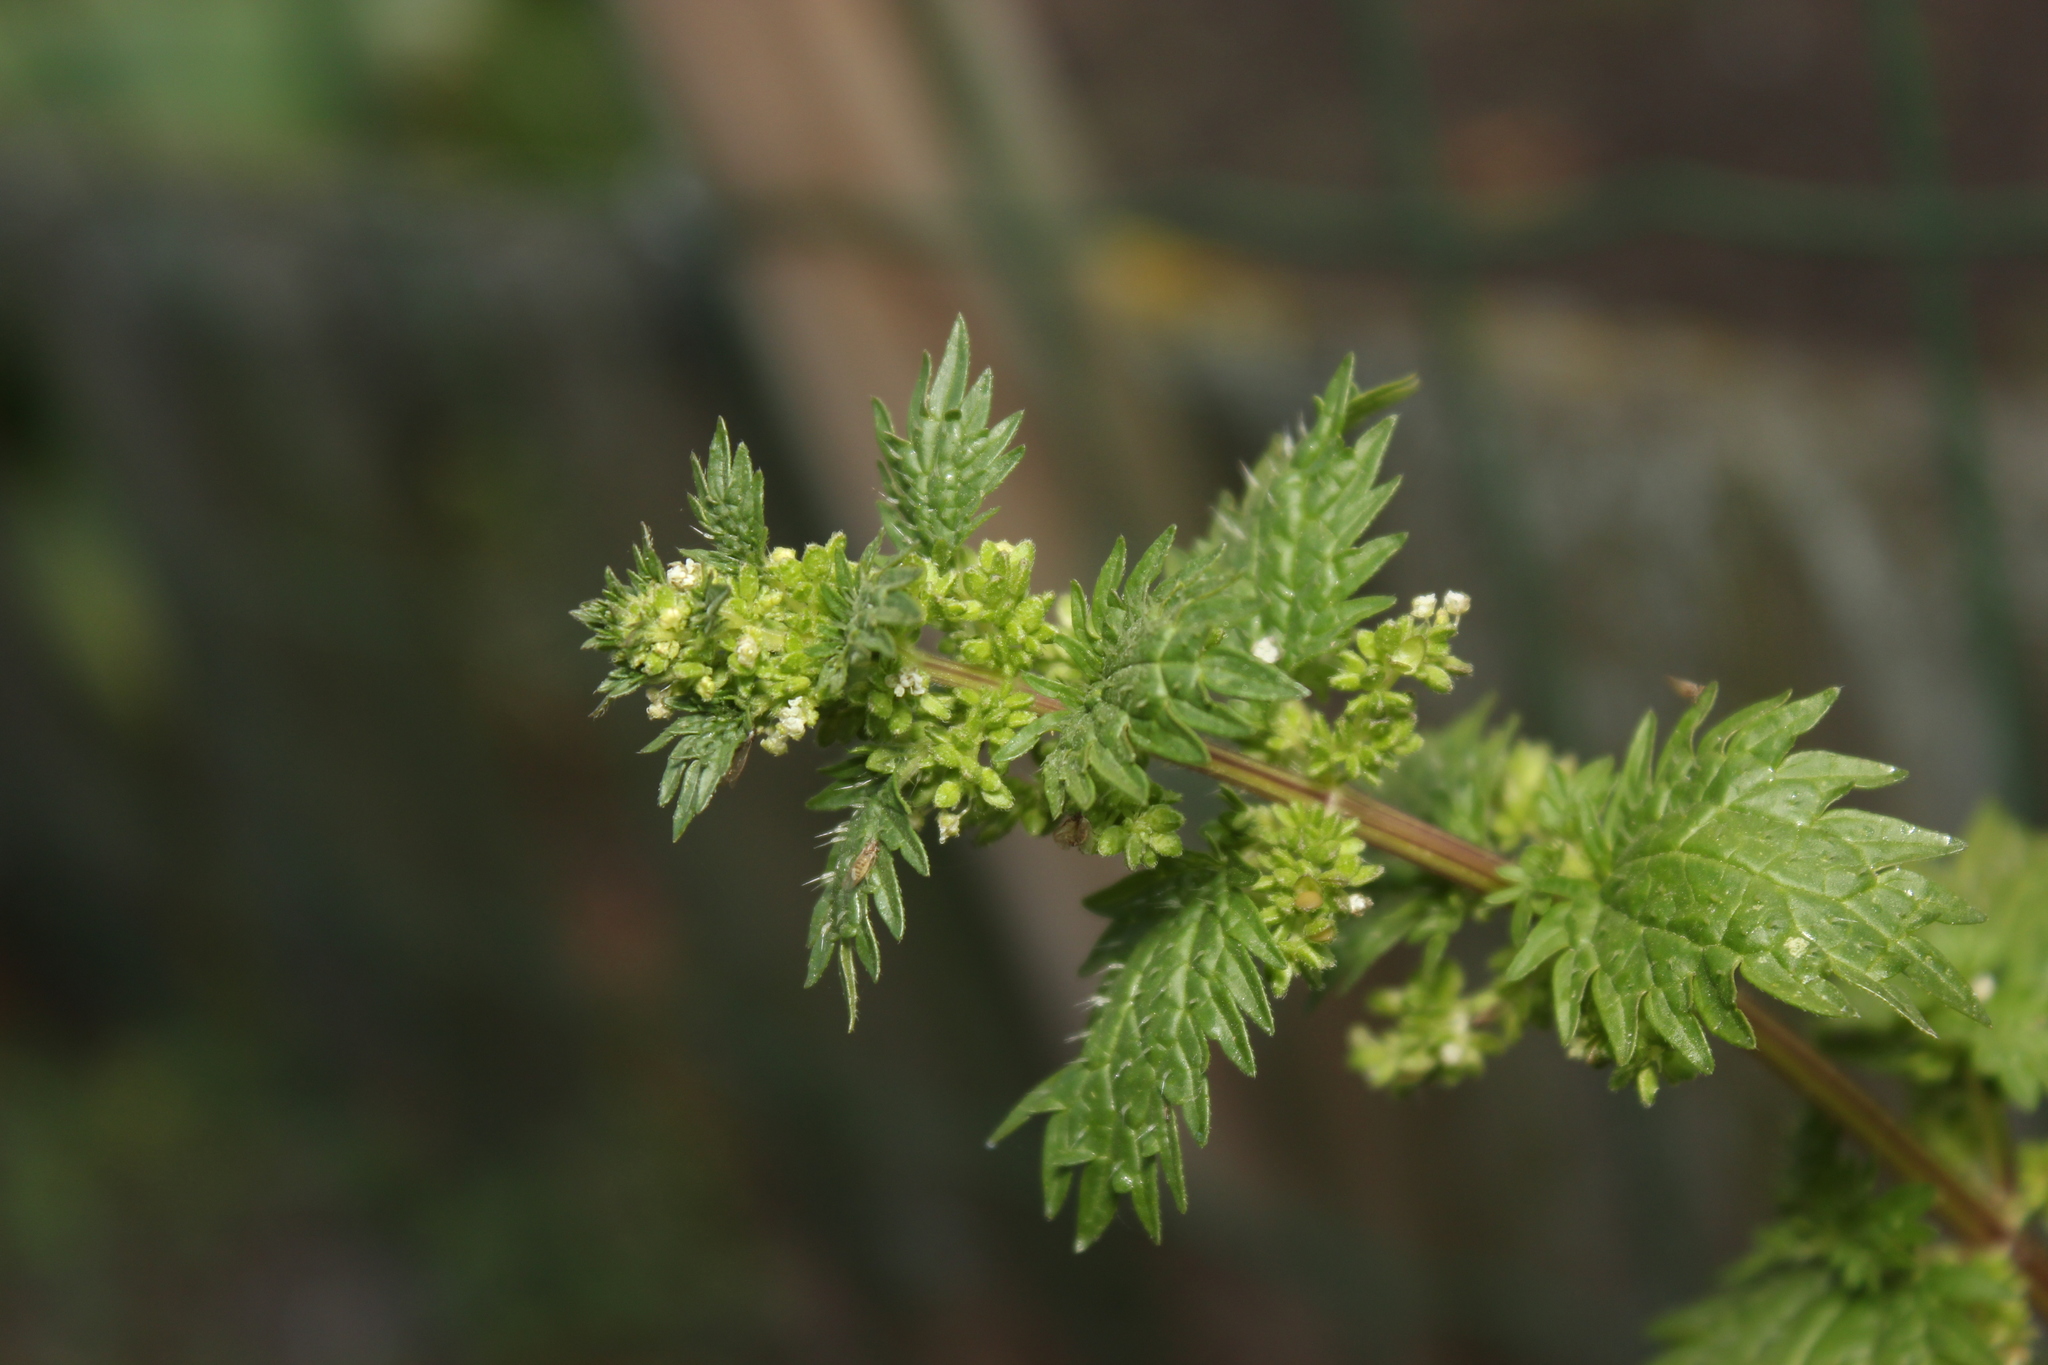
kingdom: Plantae
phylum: Tracheophyta
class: Magnoliopsida
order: Rosales
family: Urticaceae
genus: Urtica
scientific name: Urtica urens
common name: Dwarf nettle
